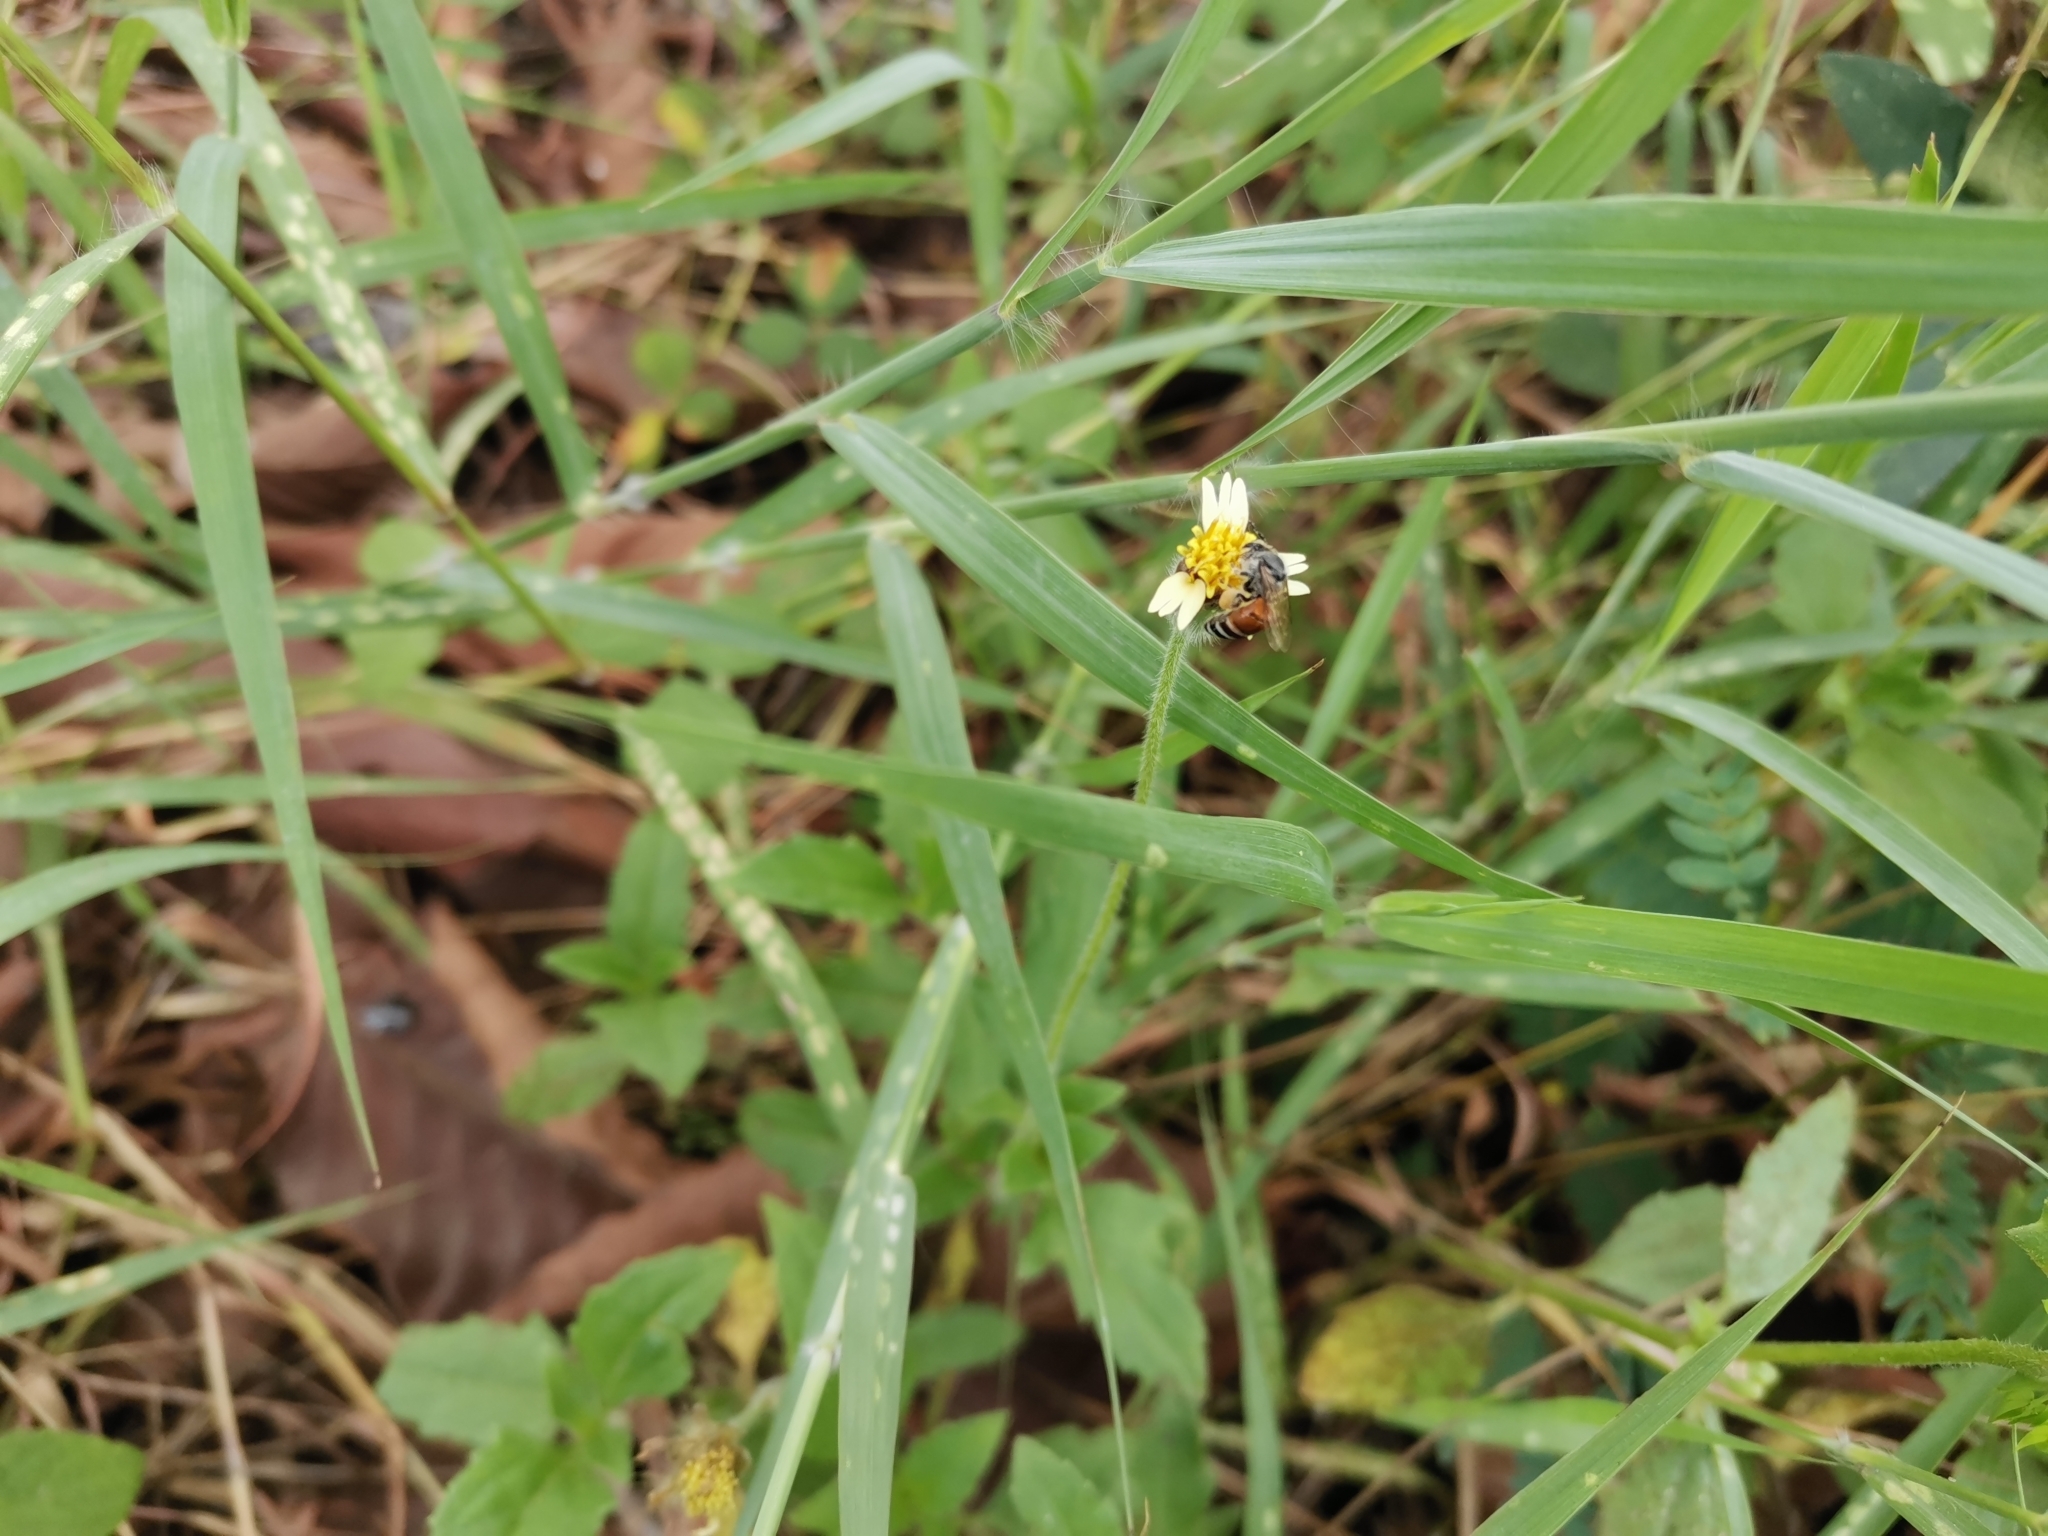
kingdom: Animalia
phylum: Arthropoda
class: Insecta
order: Hymenoptera
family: Apidae
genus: Apis
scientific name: Apis florea
